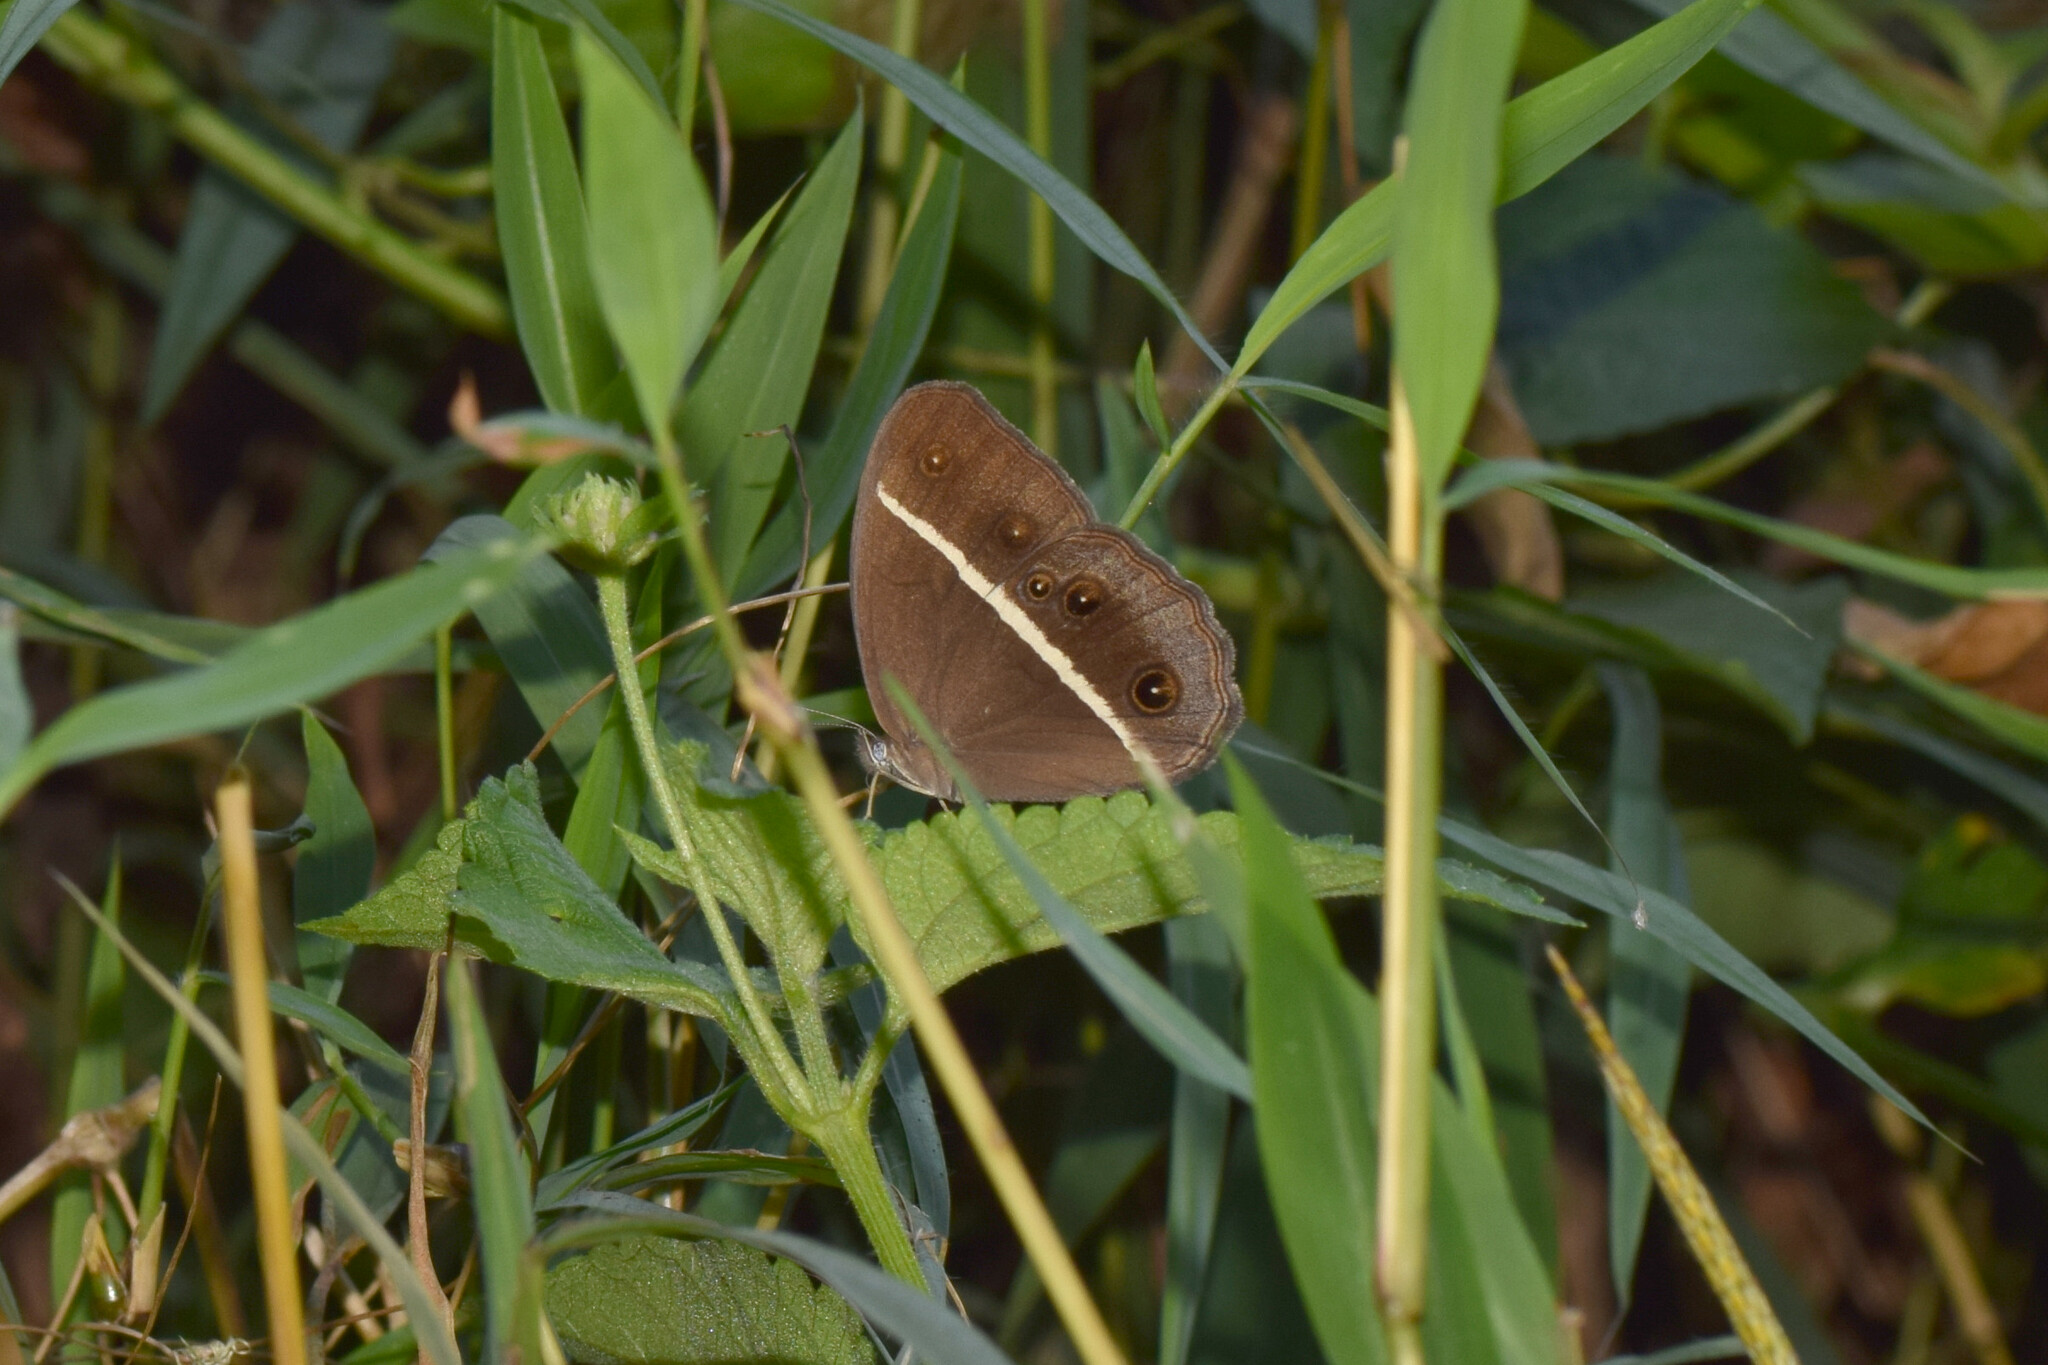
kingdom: Animalia
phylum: Arthropoda
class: Insecta
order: Lepidoptera
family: Nymphalidae
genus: Orsotriaena
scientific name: Orsotriaena medus
